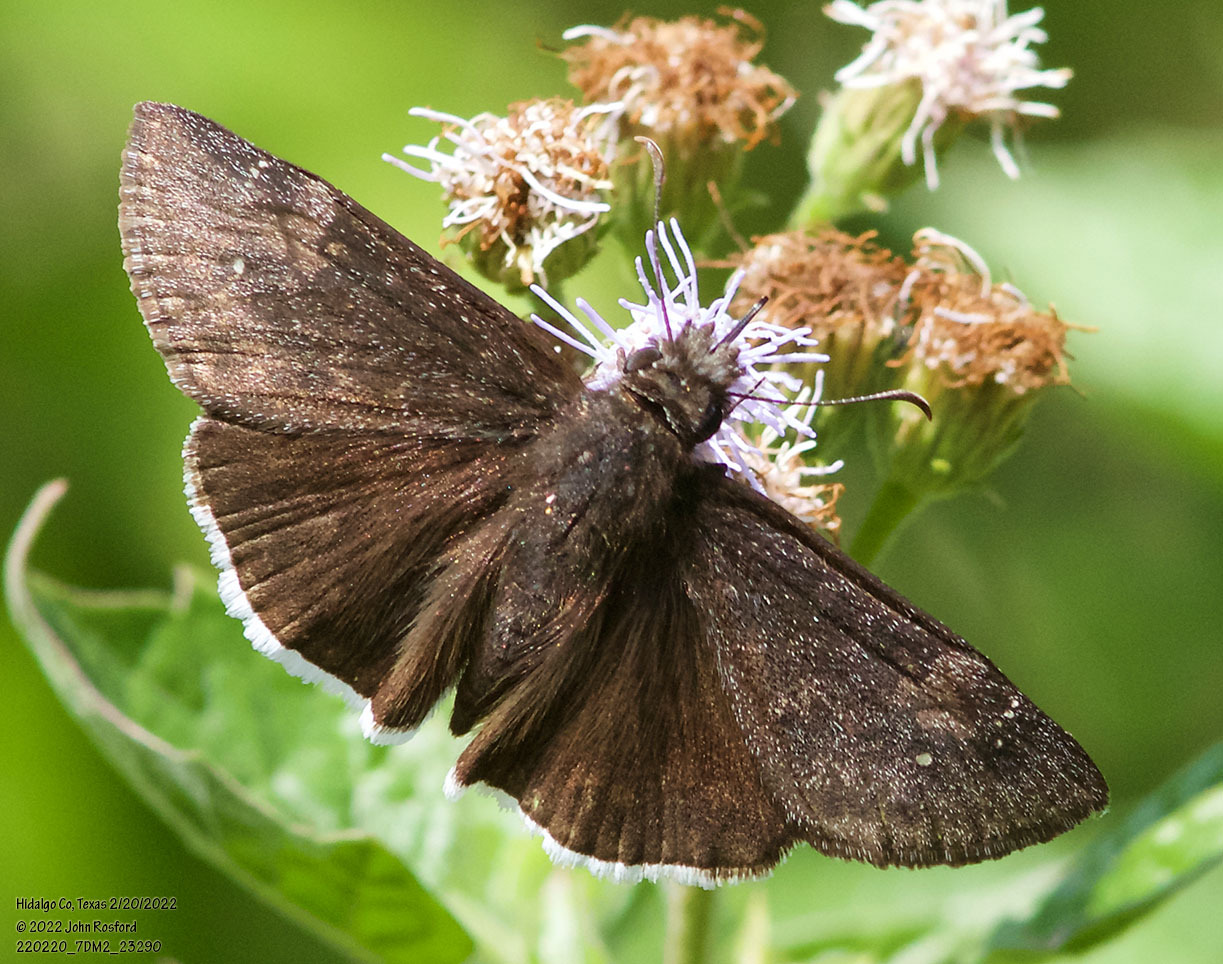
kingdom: Animalia
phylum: Arthropoda
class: Insecta
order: Lepidoptera
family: Hesperiidae
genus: Erynnis
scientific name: Erynnis funeralis
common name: Funereal duskywing
